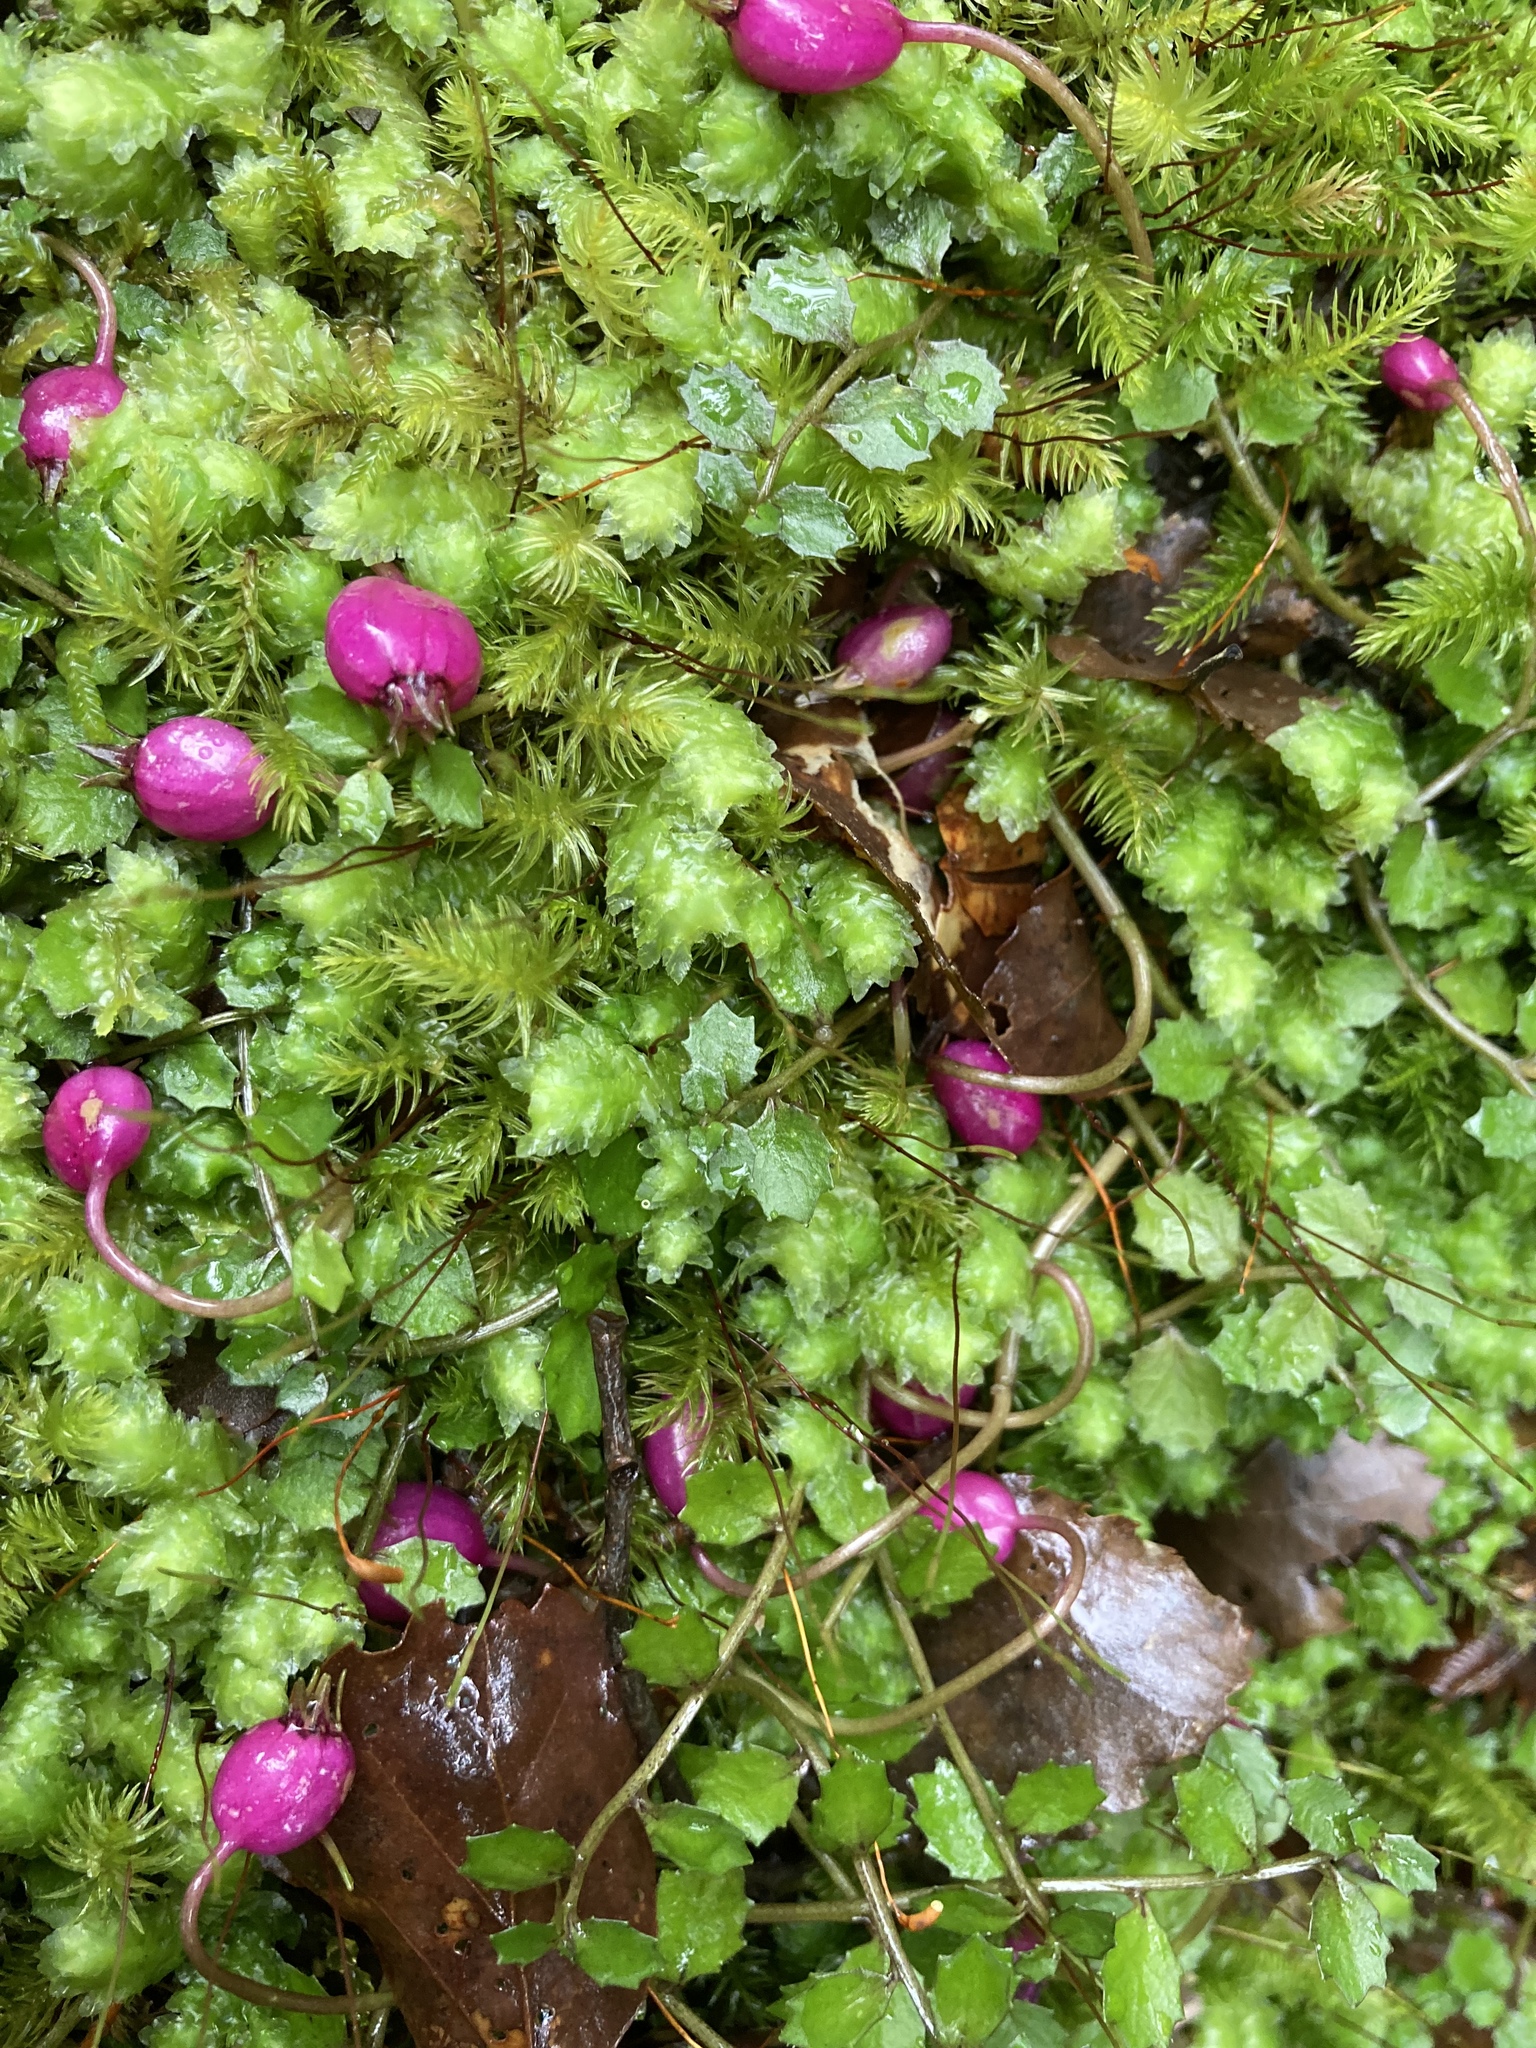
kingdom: Plantae
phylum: Tracheophyta
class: Magnoliopsida
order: Asterales
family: Campanulaceae
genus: Lobelia
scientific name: Lobelia angulata
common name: Lawn lobelia
